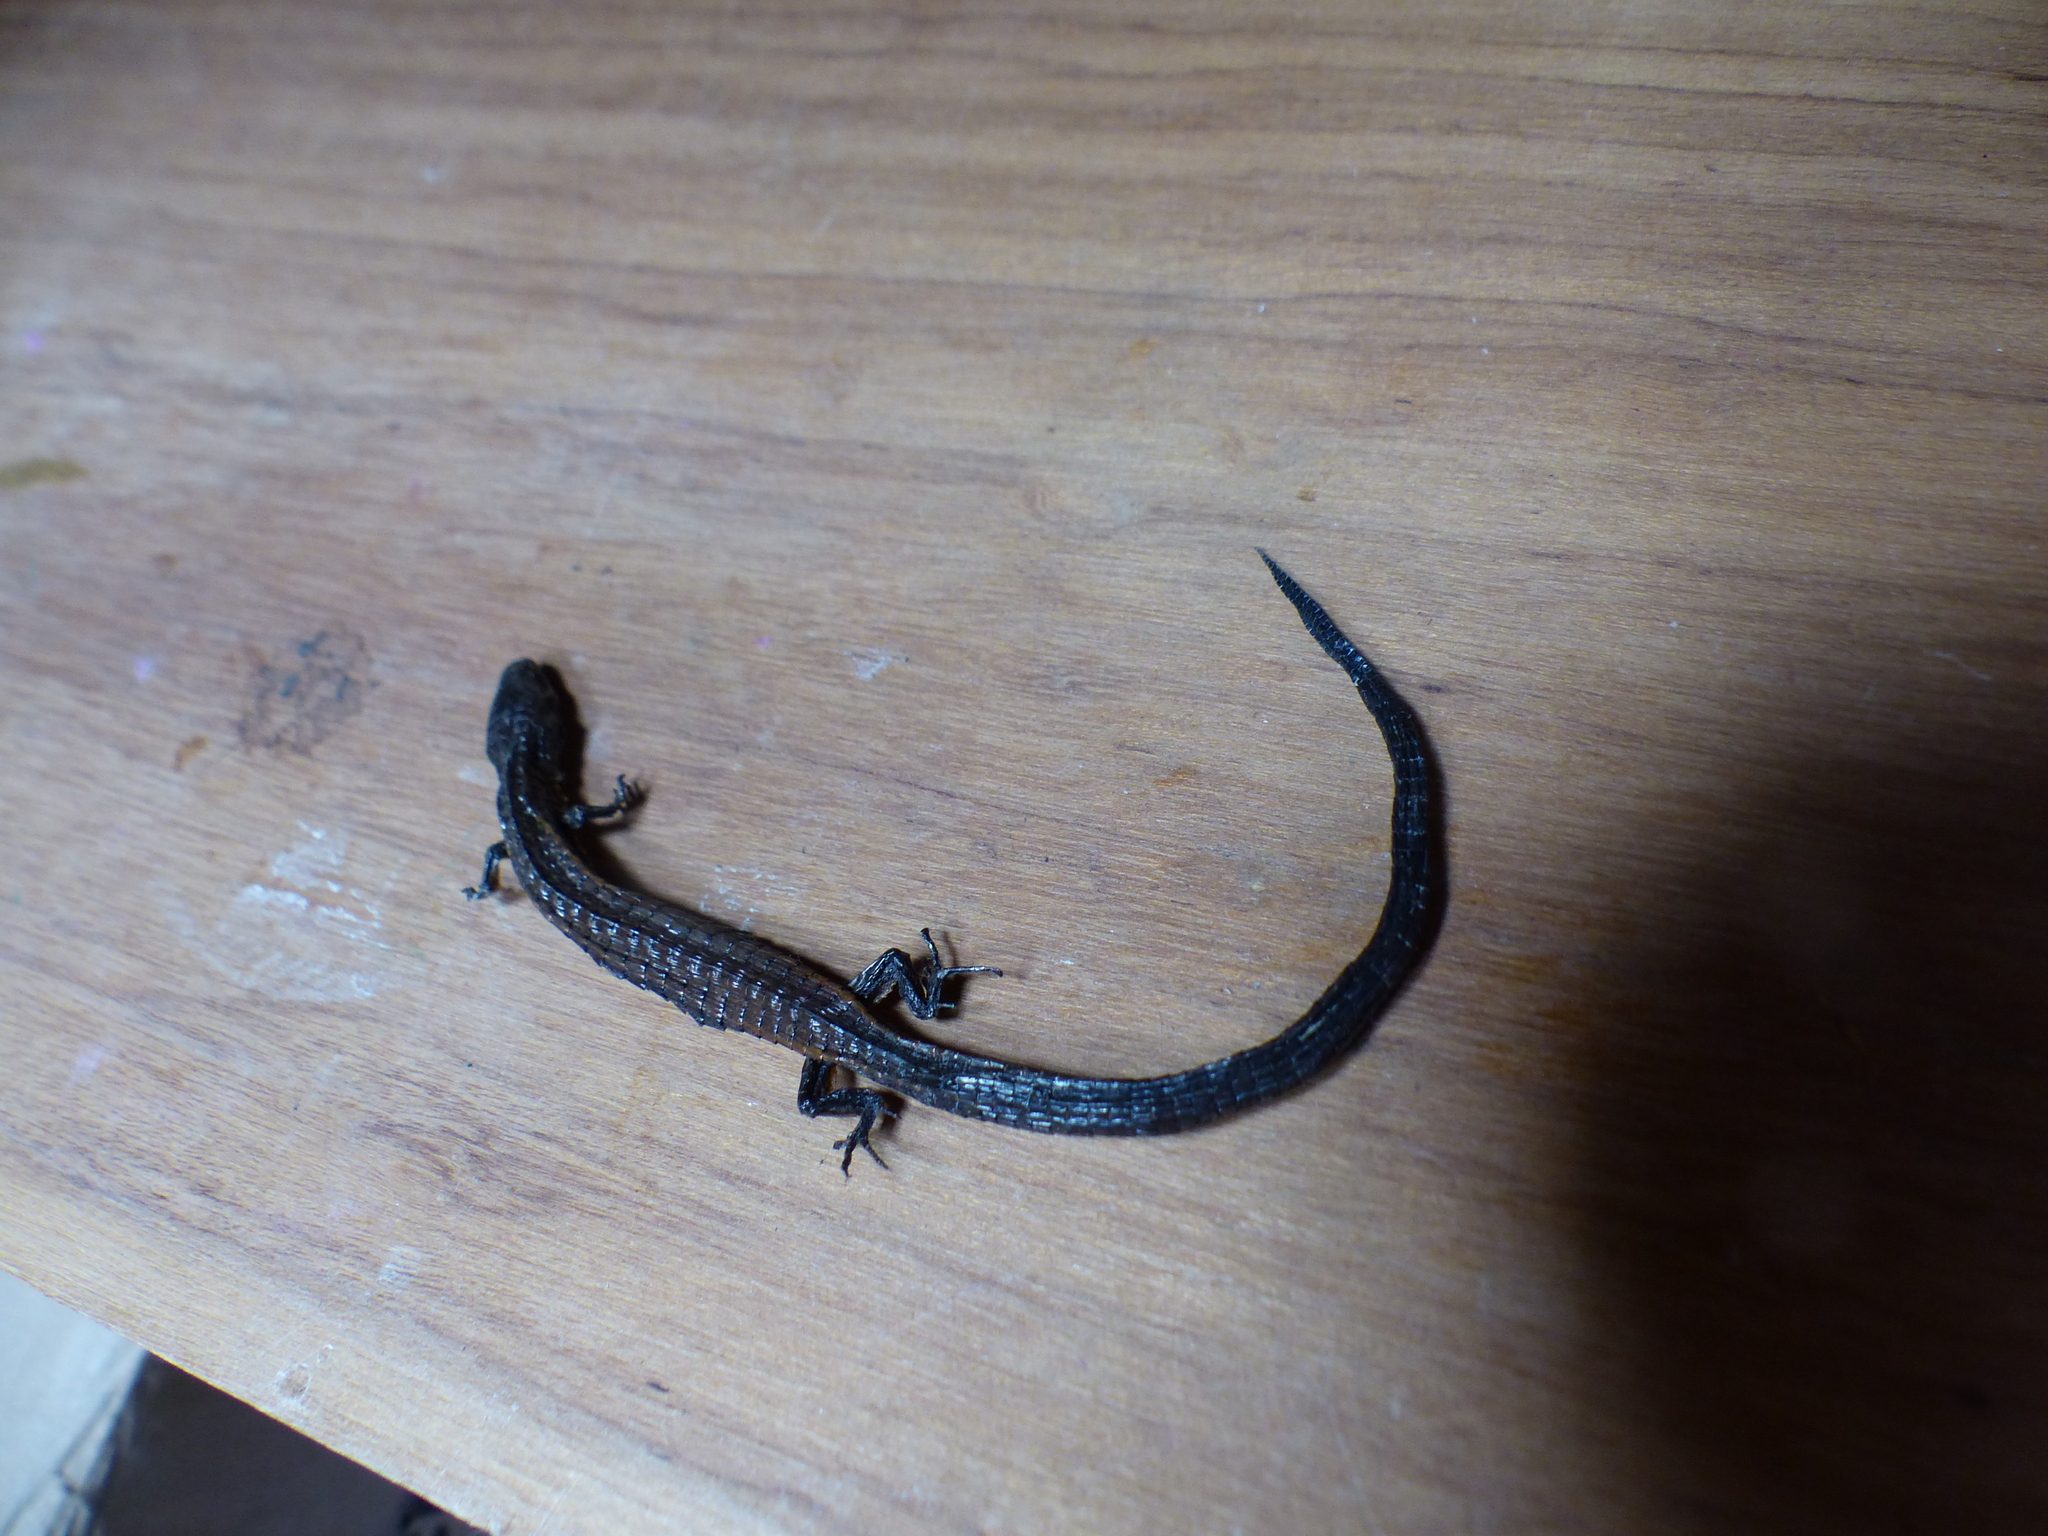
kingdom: Animalia
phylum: Chordata
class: Squamata
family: Gymnophthalmidae
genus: Riama
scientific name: Riama striata
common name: Striped lightbulb lizard
